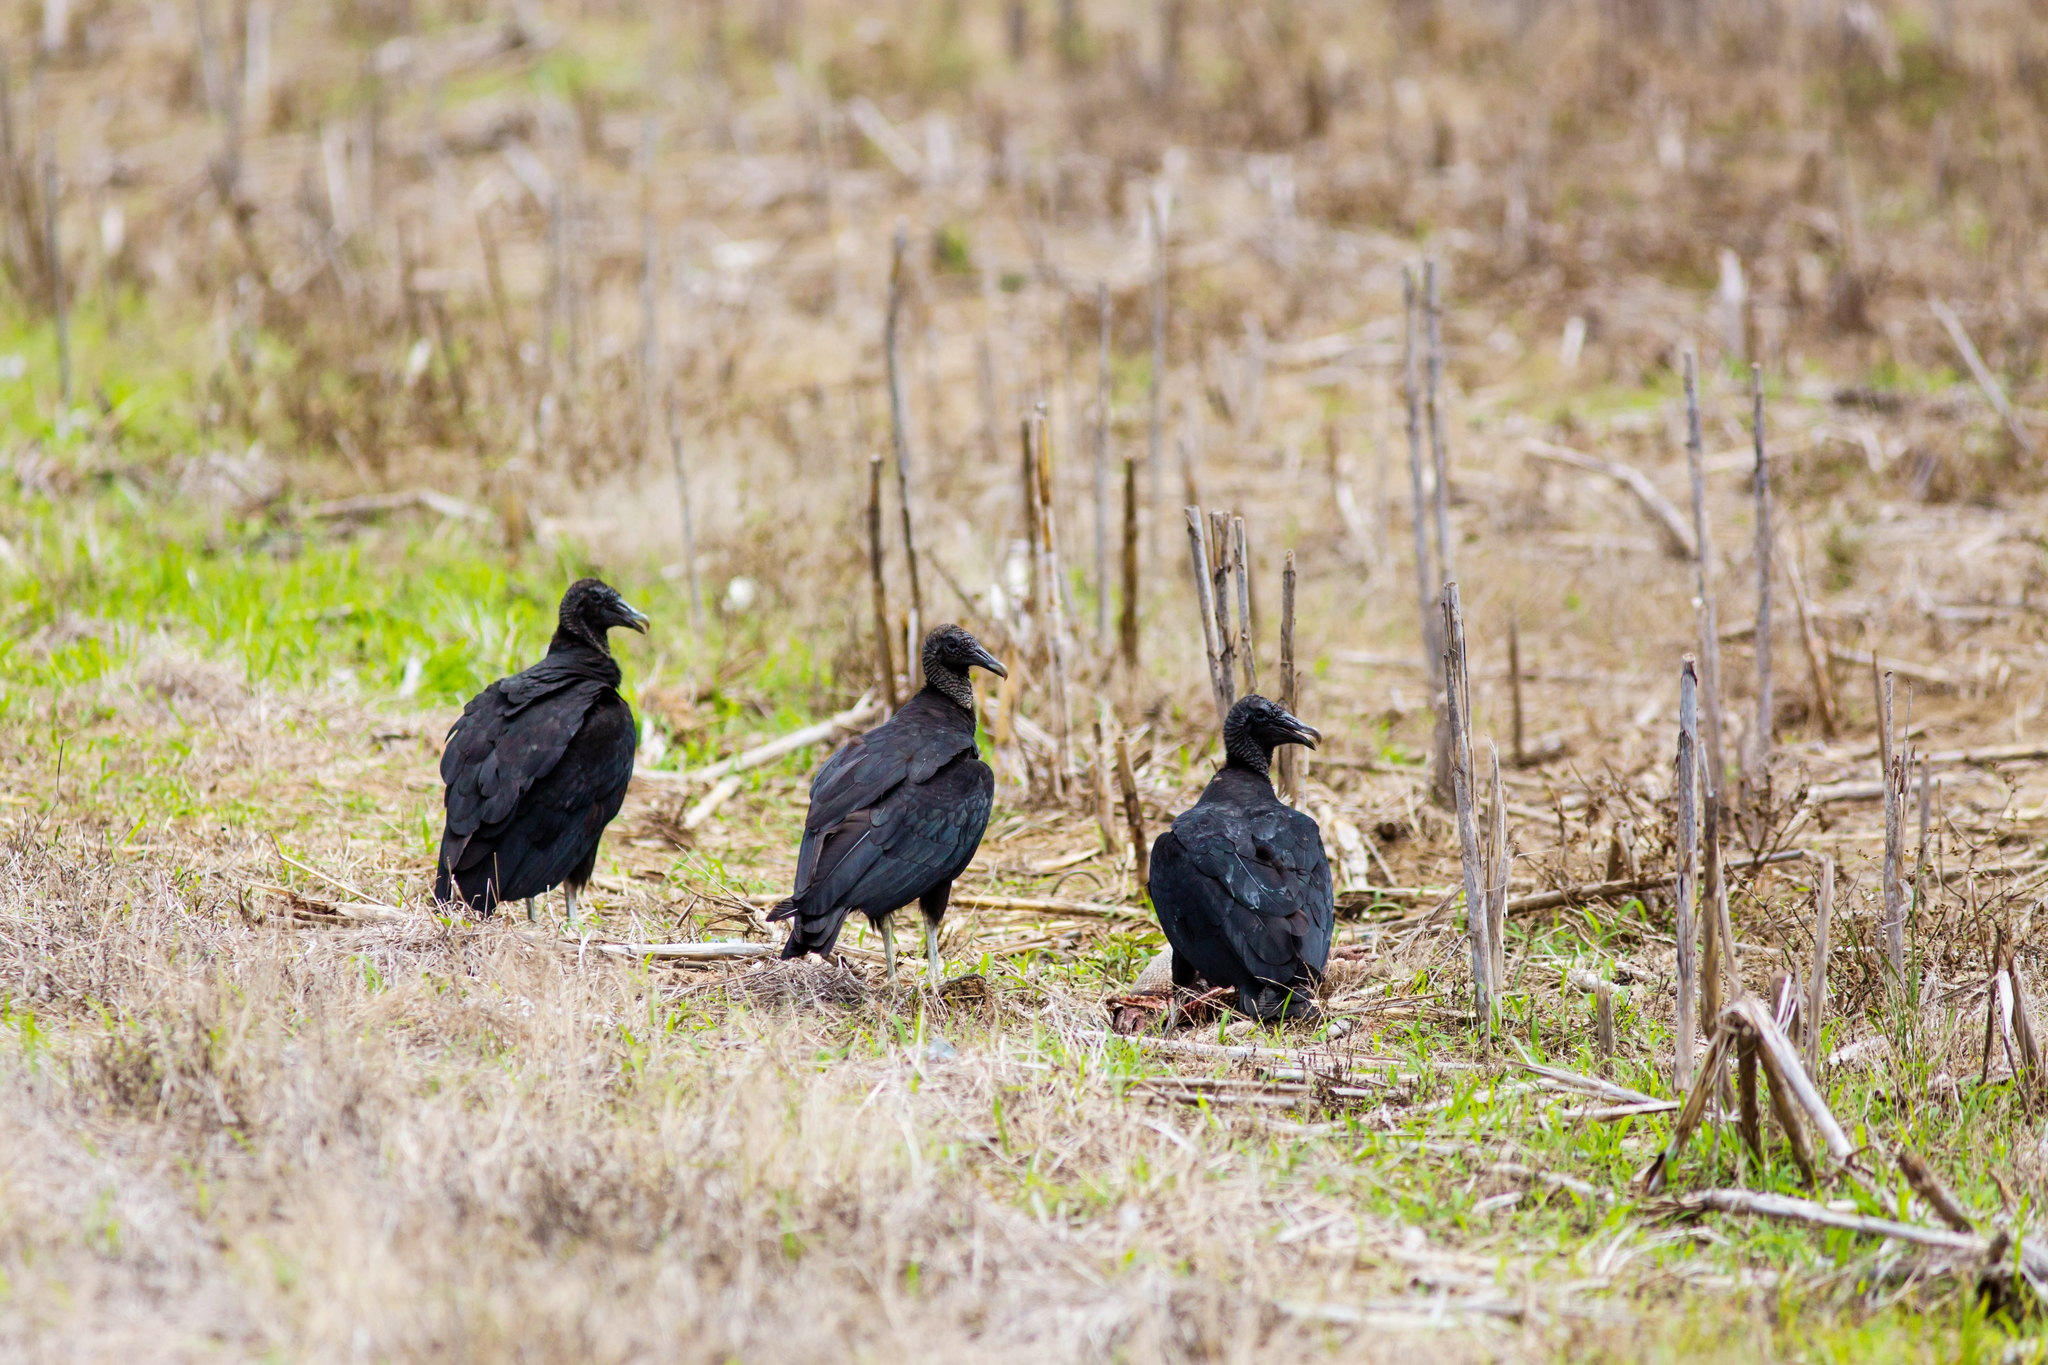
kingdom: Animalia
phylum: Chordata
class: Aves
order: Accipitriformes
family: Cathartidae
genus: Coragyps
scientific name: Coragyps atratus
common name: Black vulture
